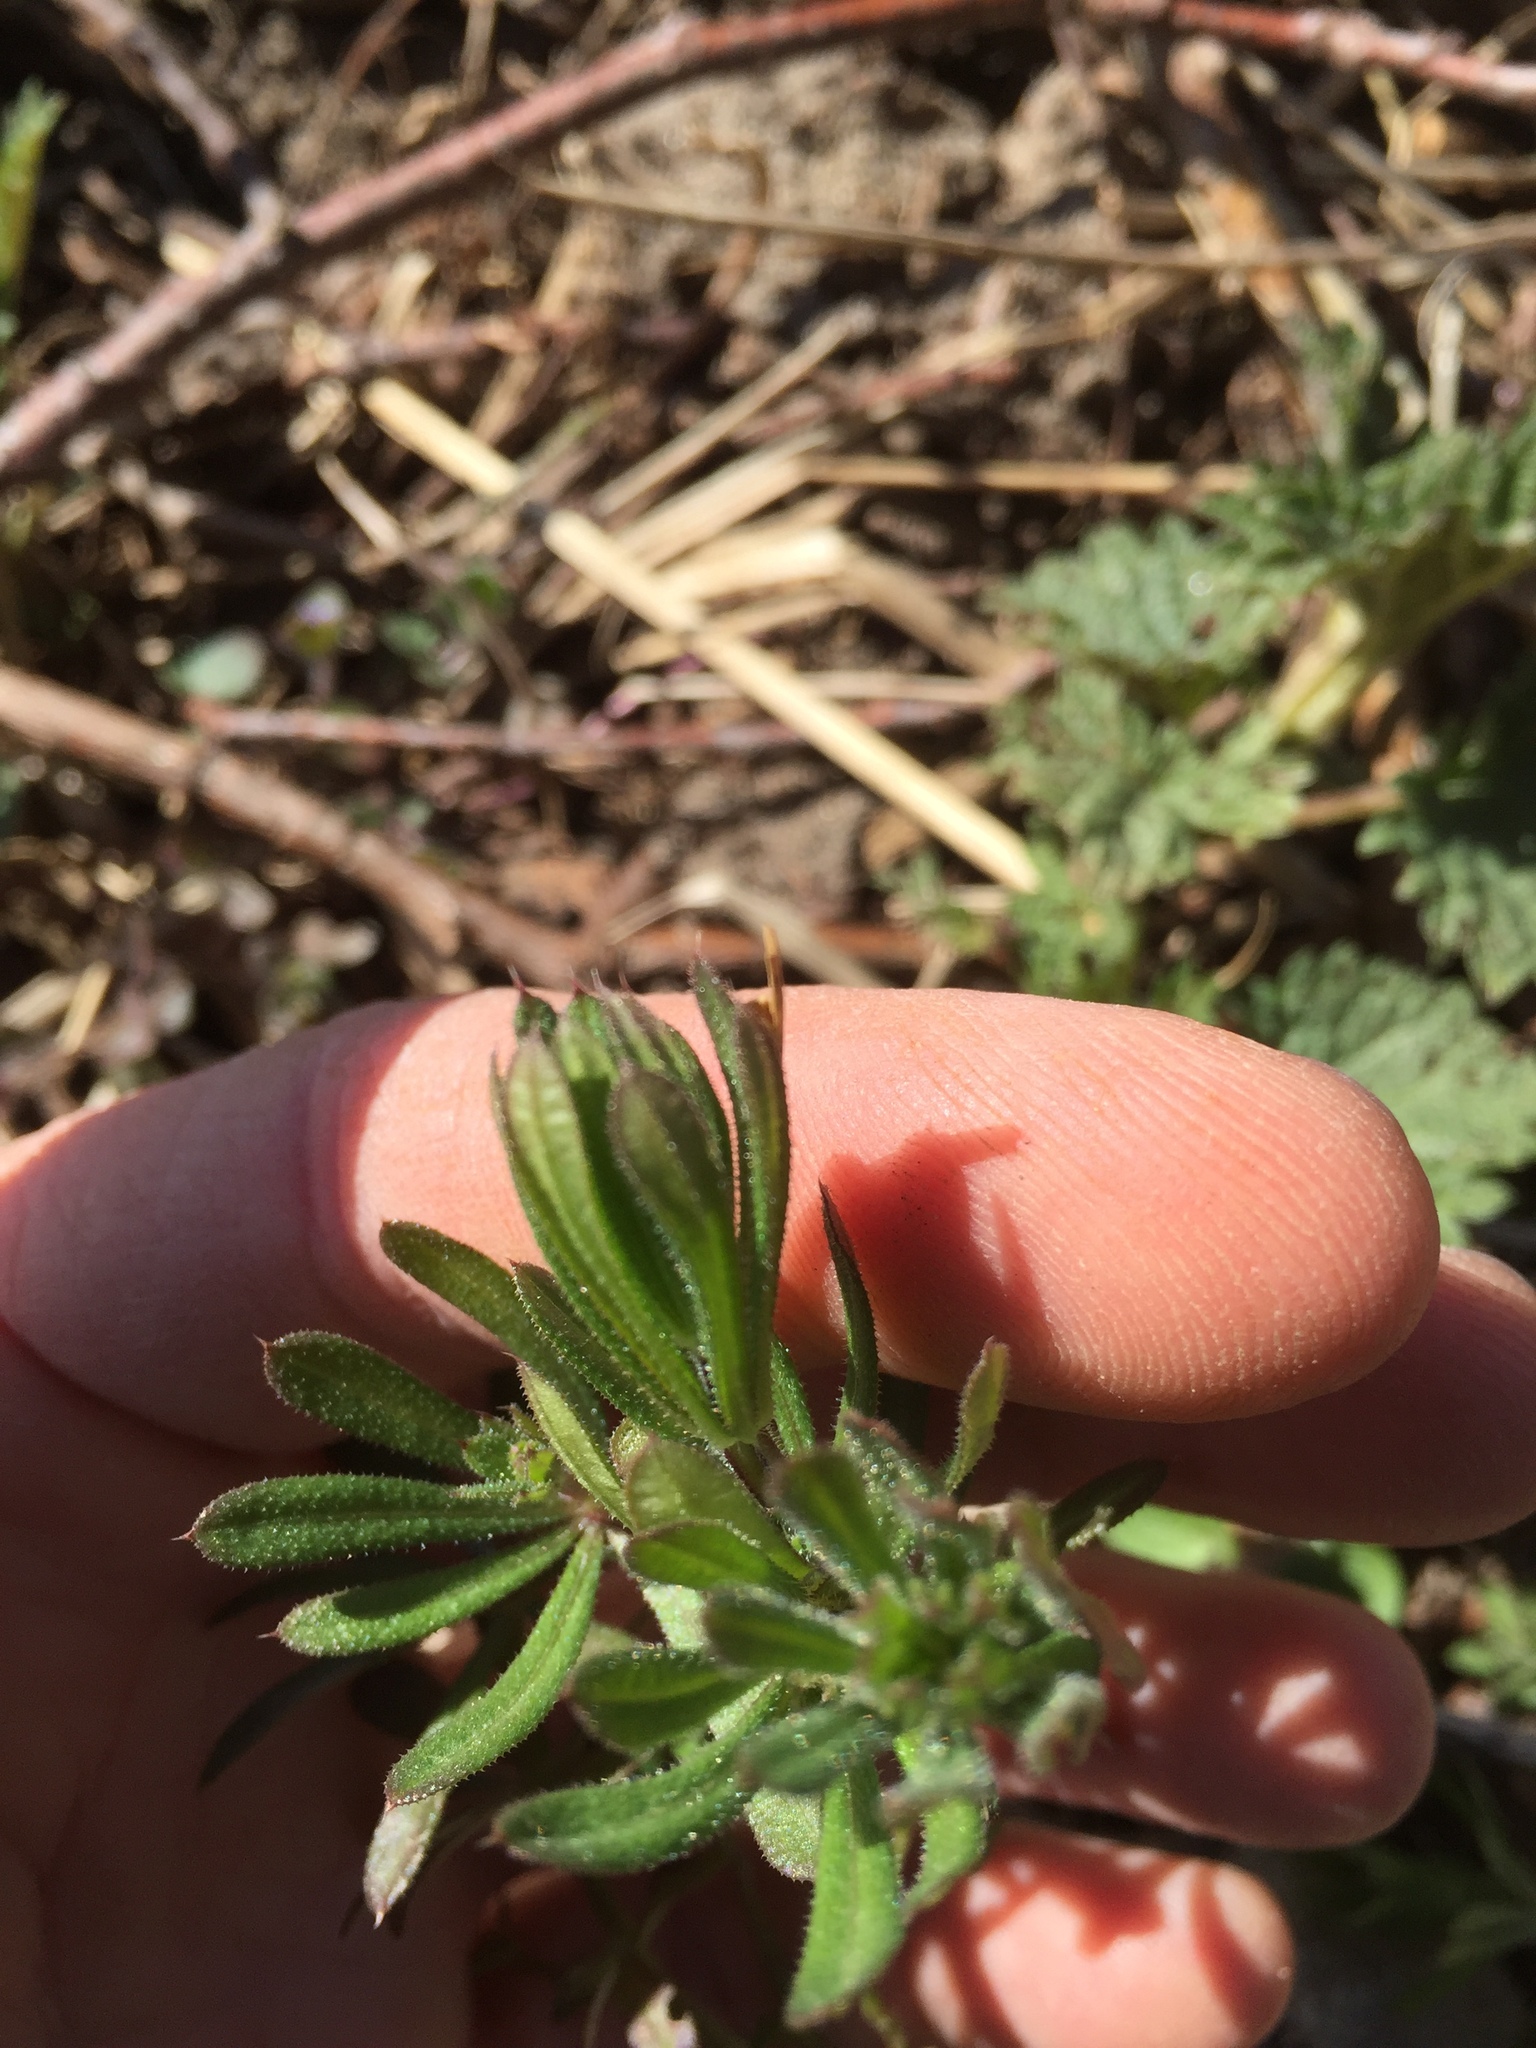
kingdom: Plantae
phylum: Tracheophyta
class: Magnoliopsida
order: Gentianales
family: Rubiaceae
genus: Galium
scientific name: Galium aparine
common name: Cleavers
